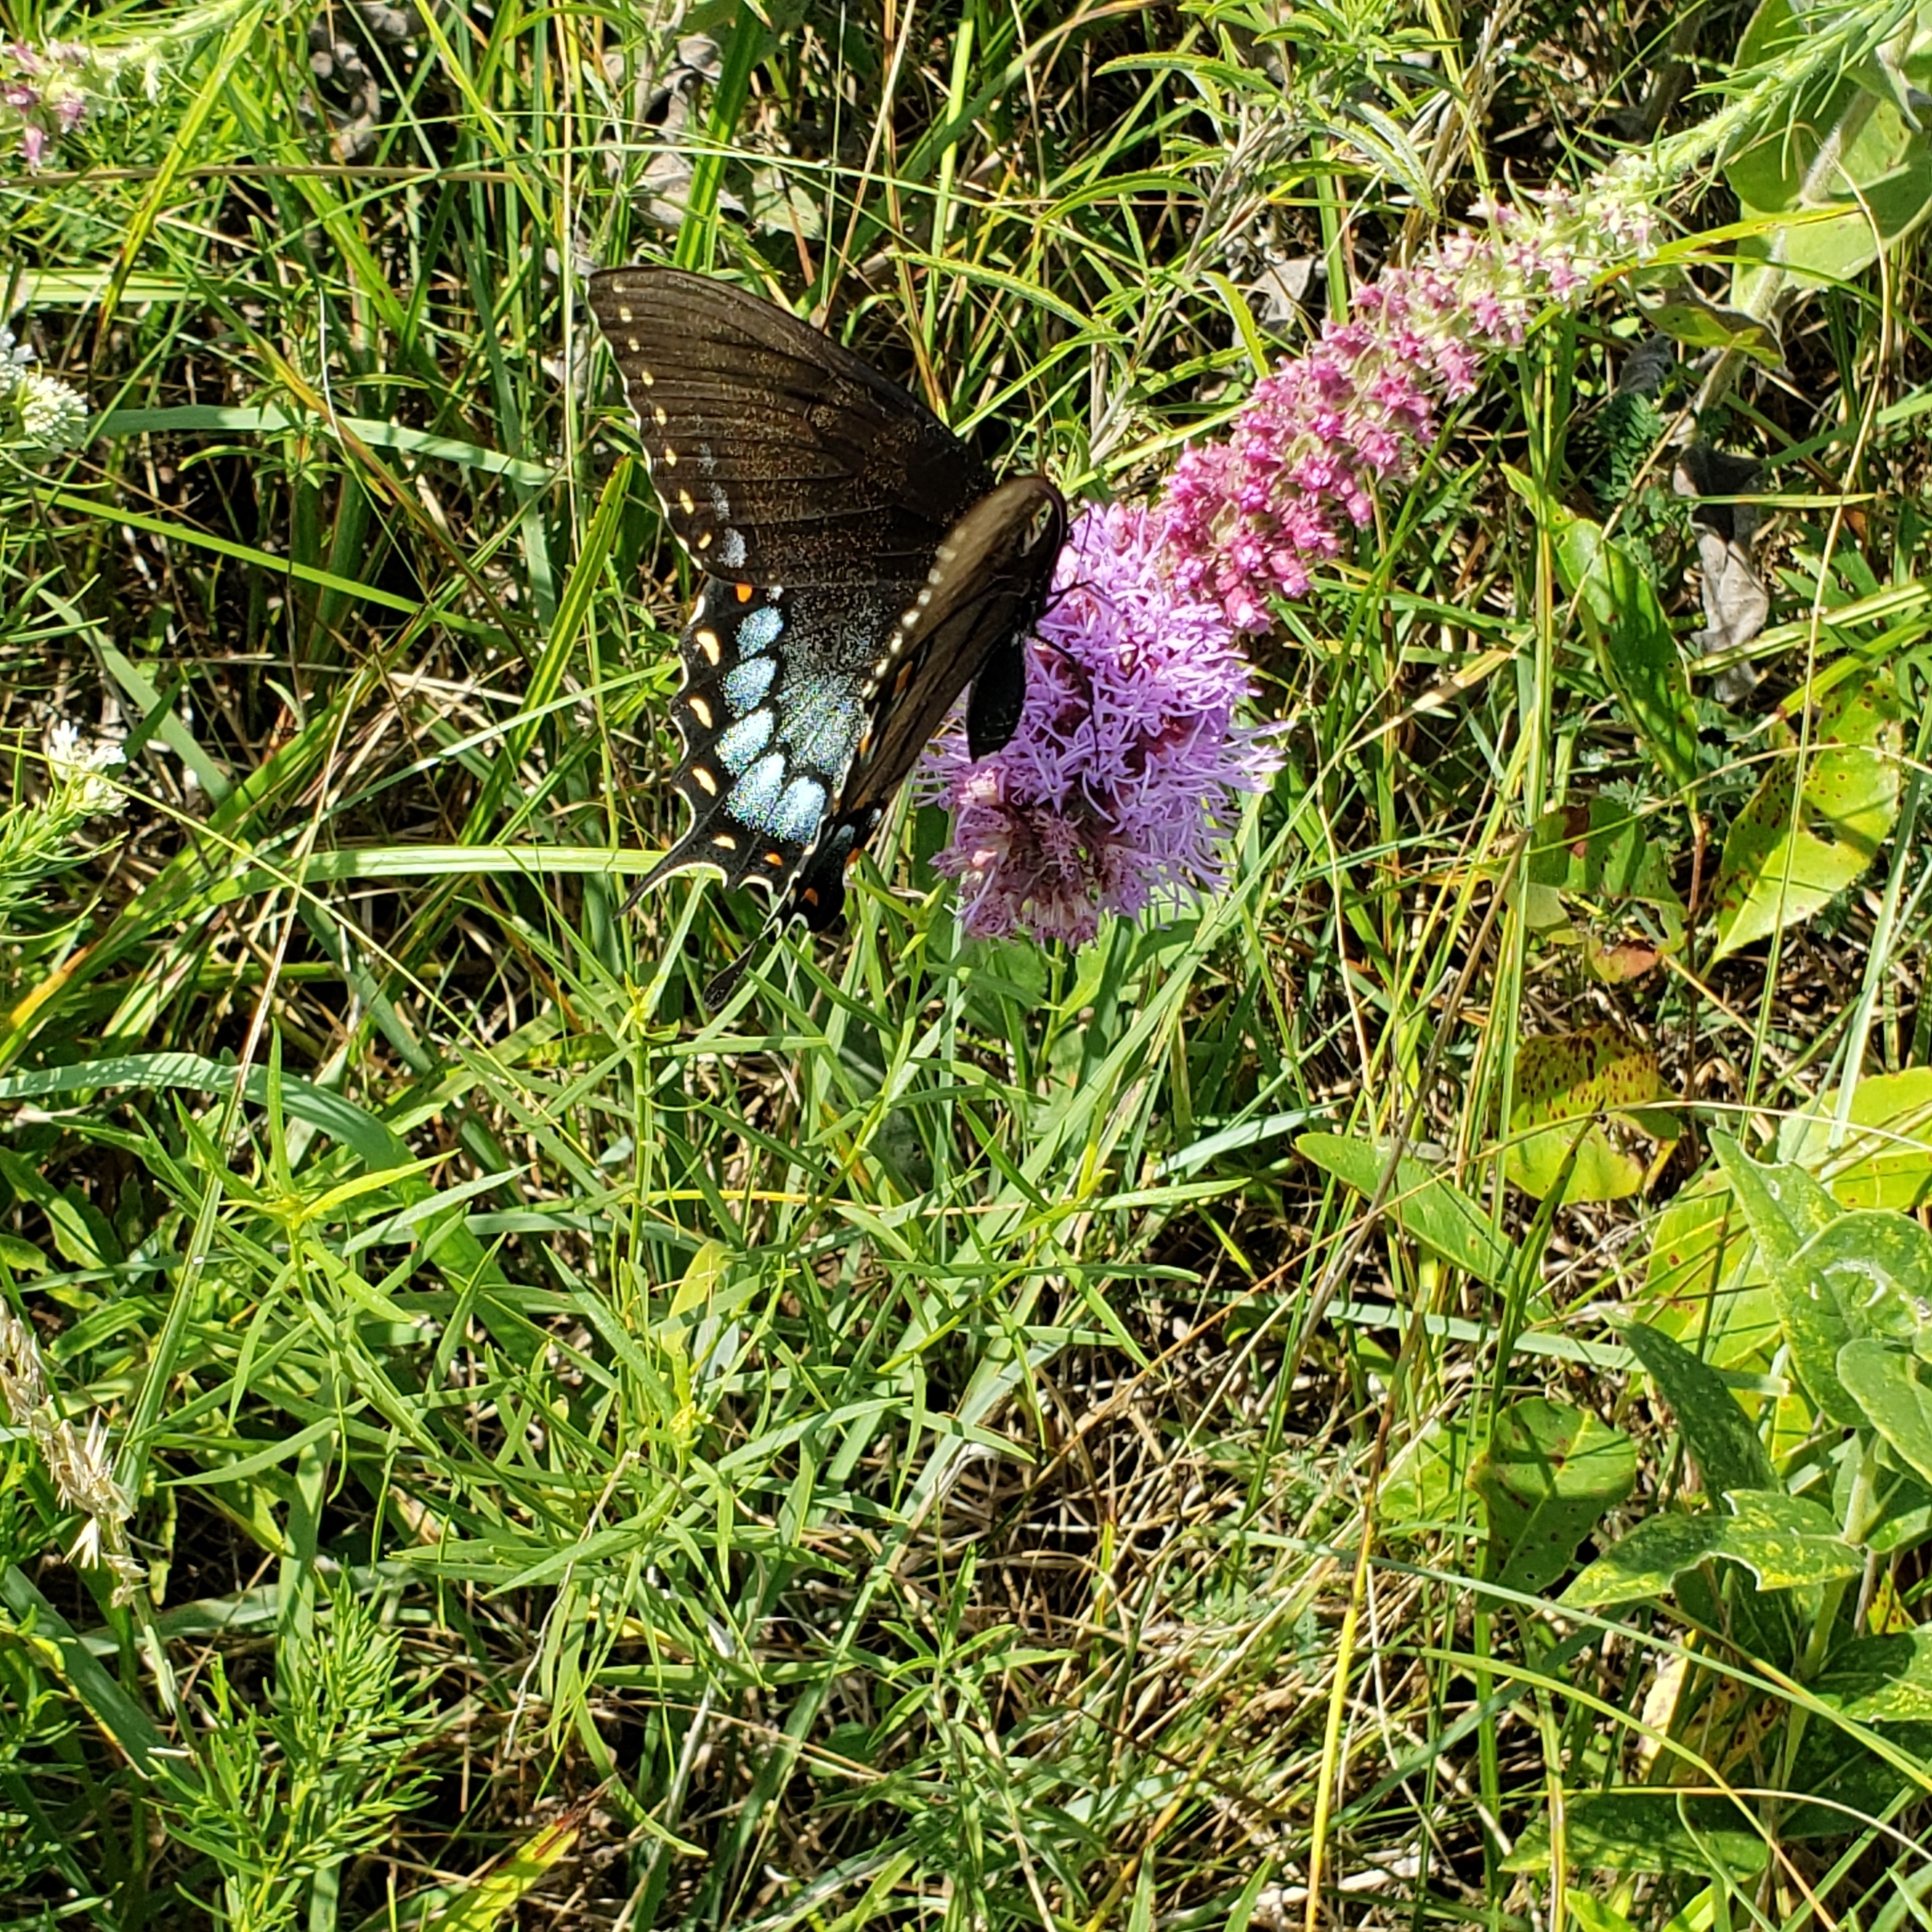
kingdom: Animalia
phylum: Arthropoda
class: Insecta
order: Lepidoptera
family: Papilionidae
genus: Papilio
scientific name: Papilio glaucus
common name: Tiger swallowtail
